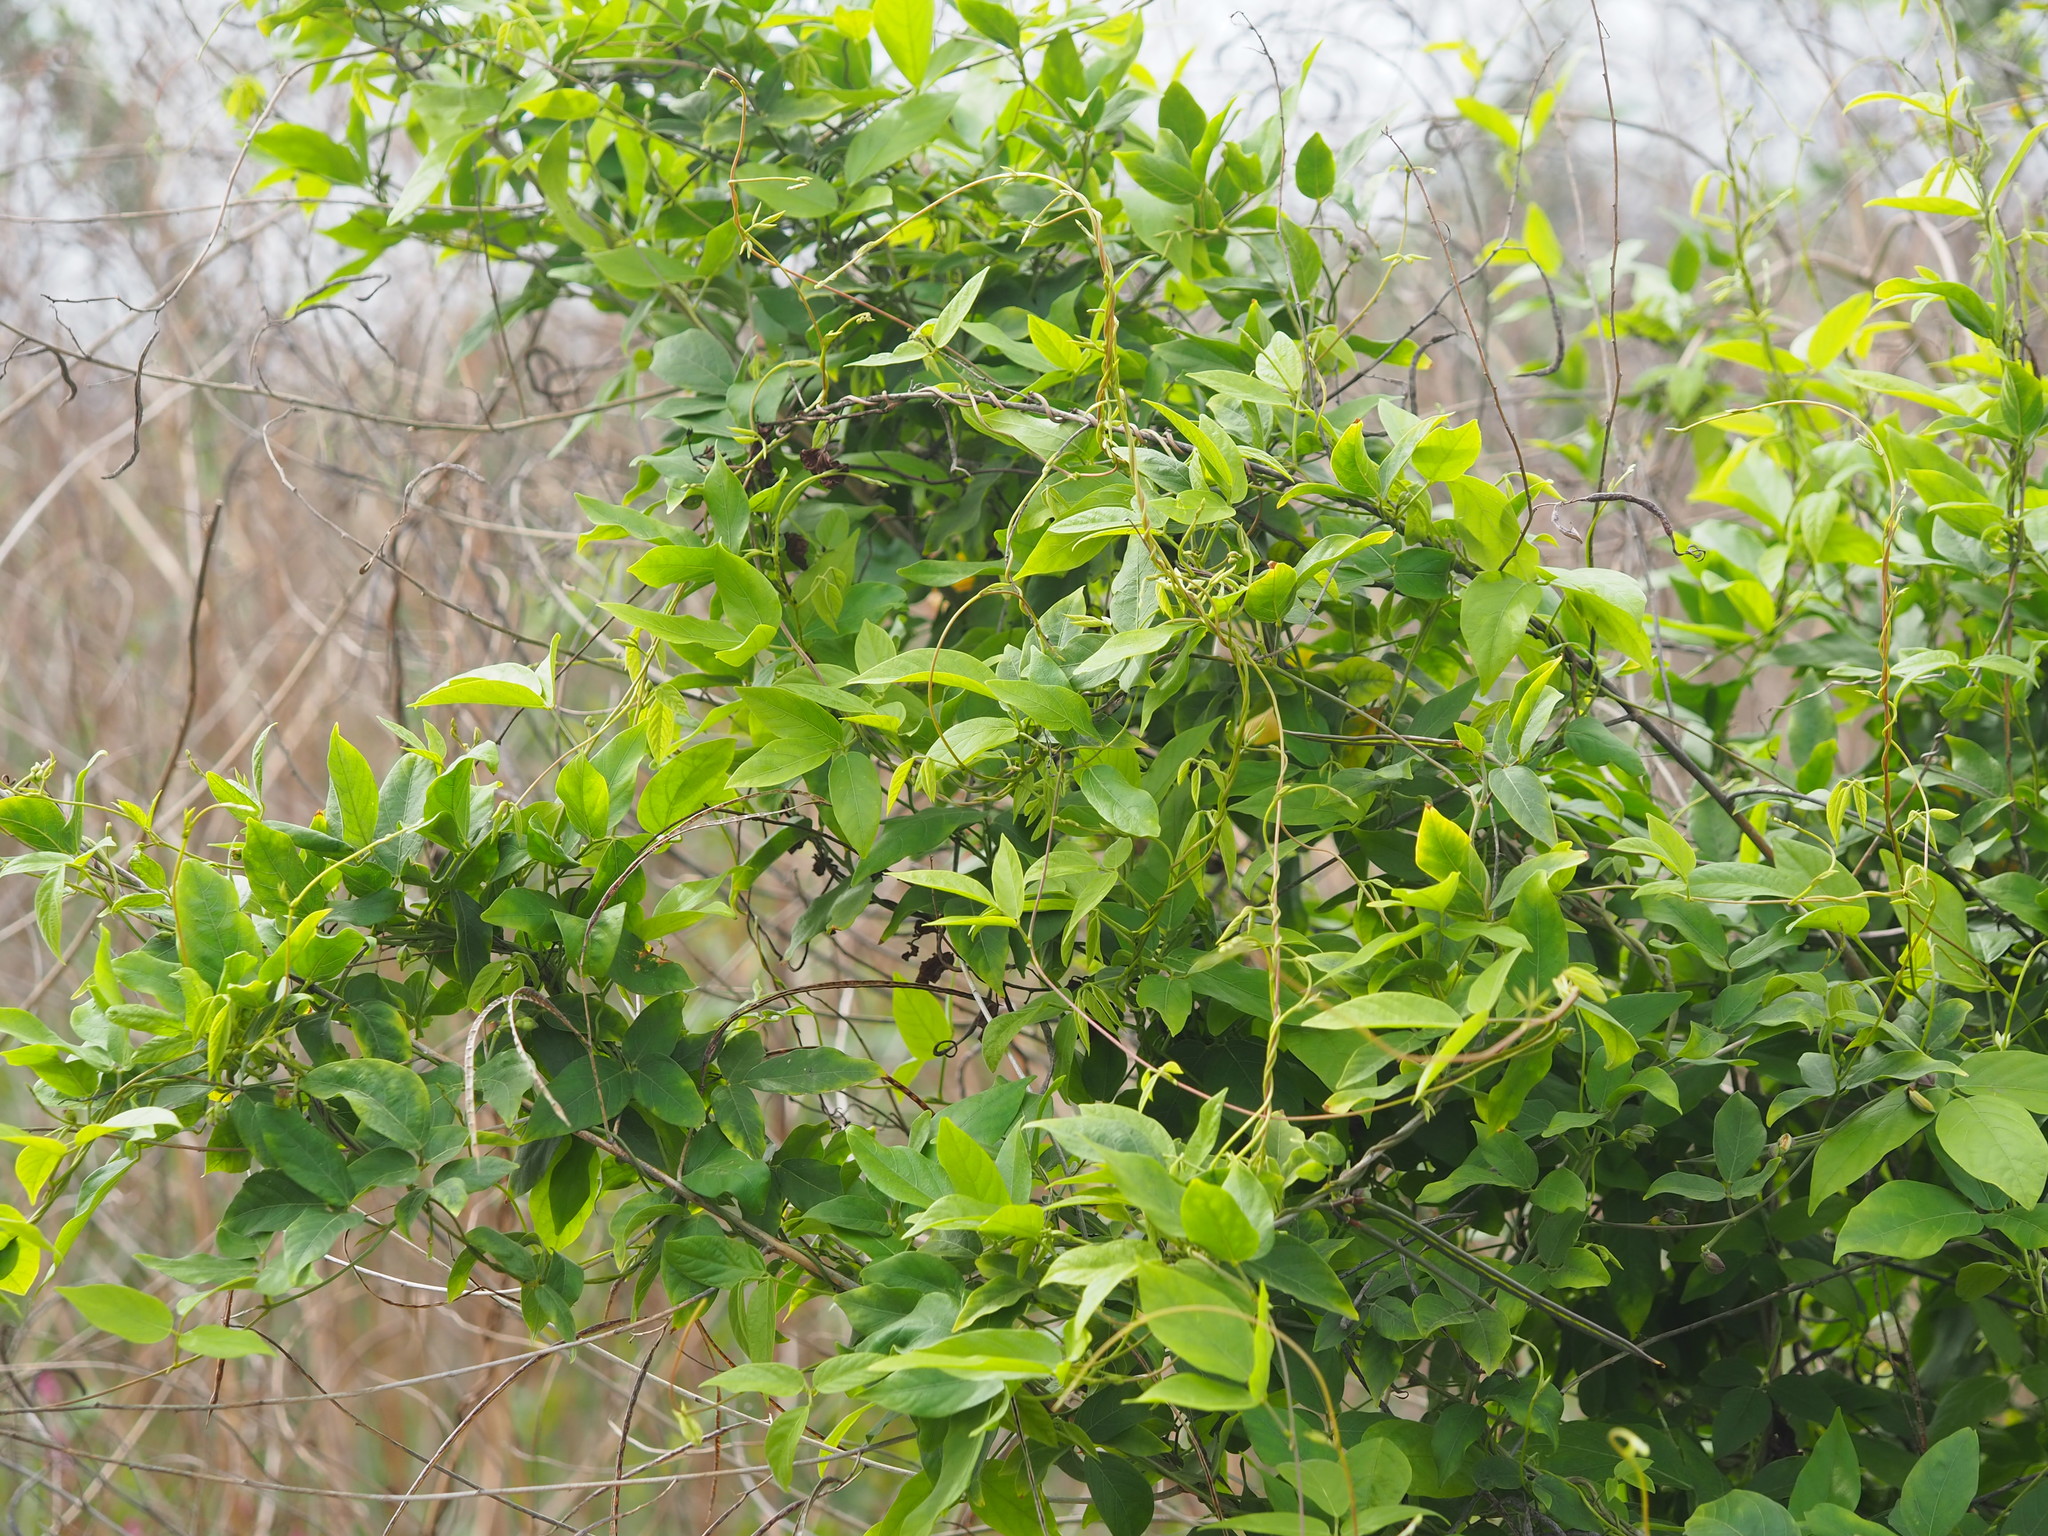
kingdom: Plantae
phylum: Tracheophyta
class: Magnoliopsida
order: Gentianales
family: Rubiaceae
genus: Paederia
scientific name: Paederia foetida
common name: Stinkvine
